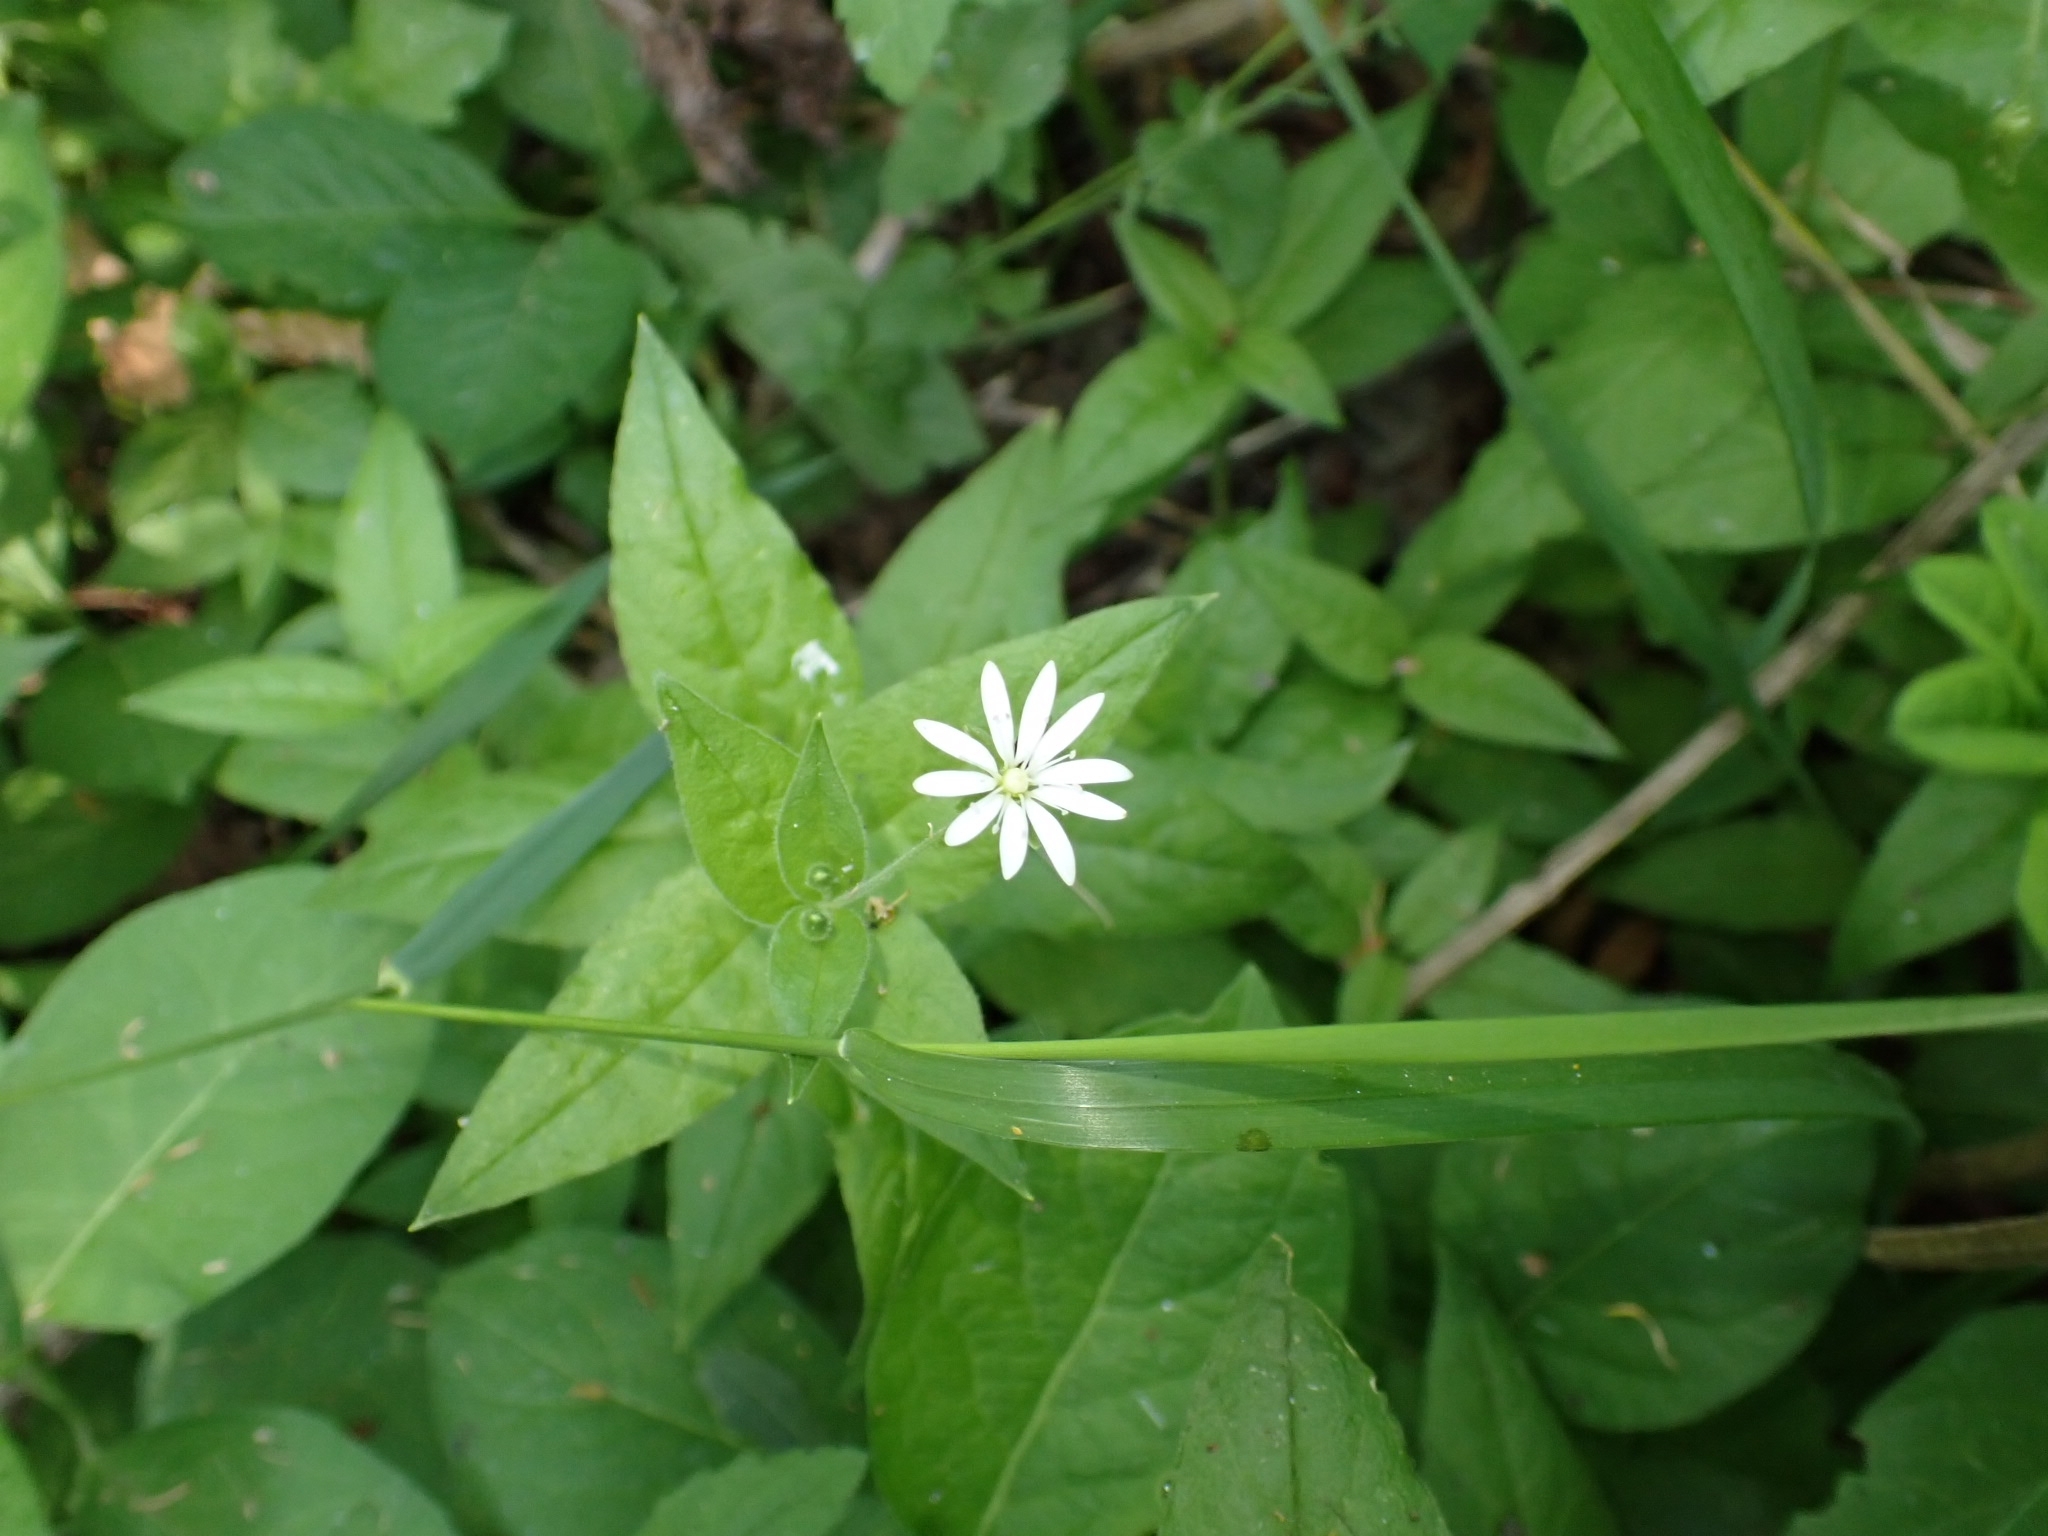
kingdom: Plantae
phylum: Tracheophyta
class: Magnoliopsida
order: Caryophyllales
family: Caryophyllaceae
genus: Stellaria
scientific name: Stellaria bungeana
